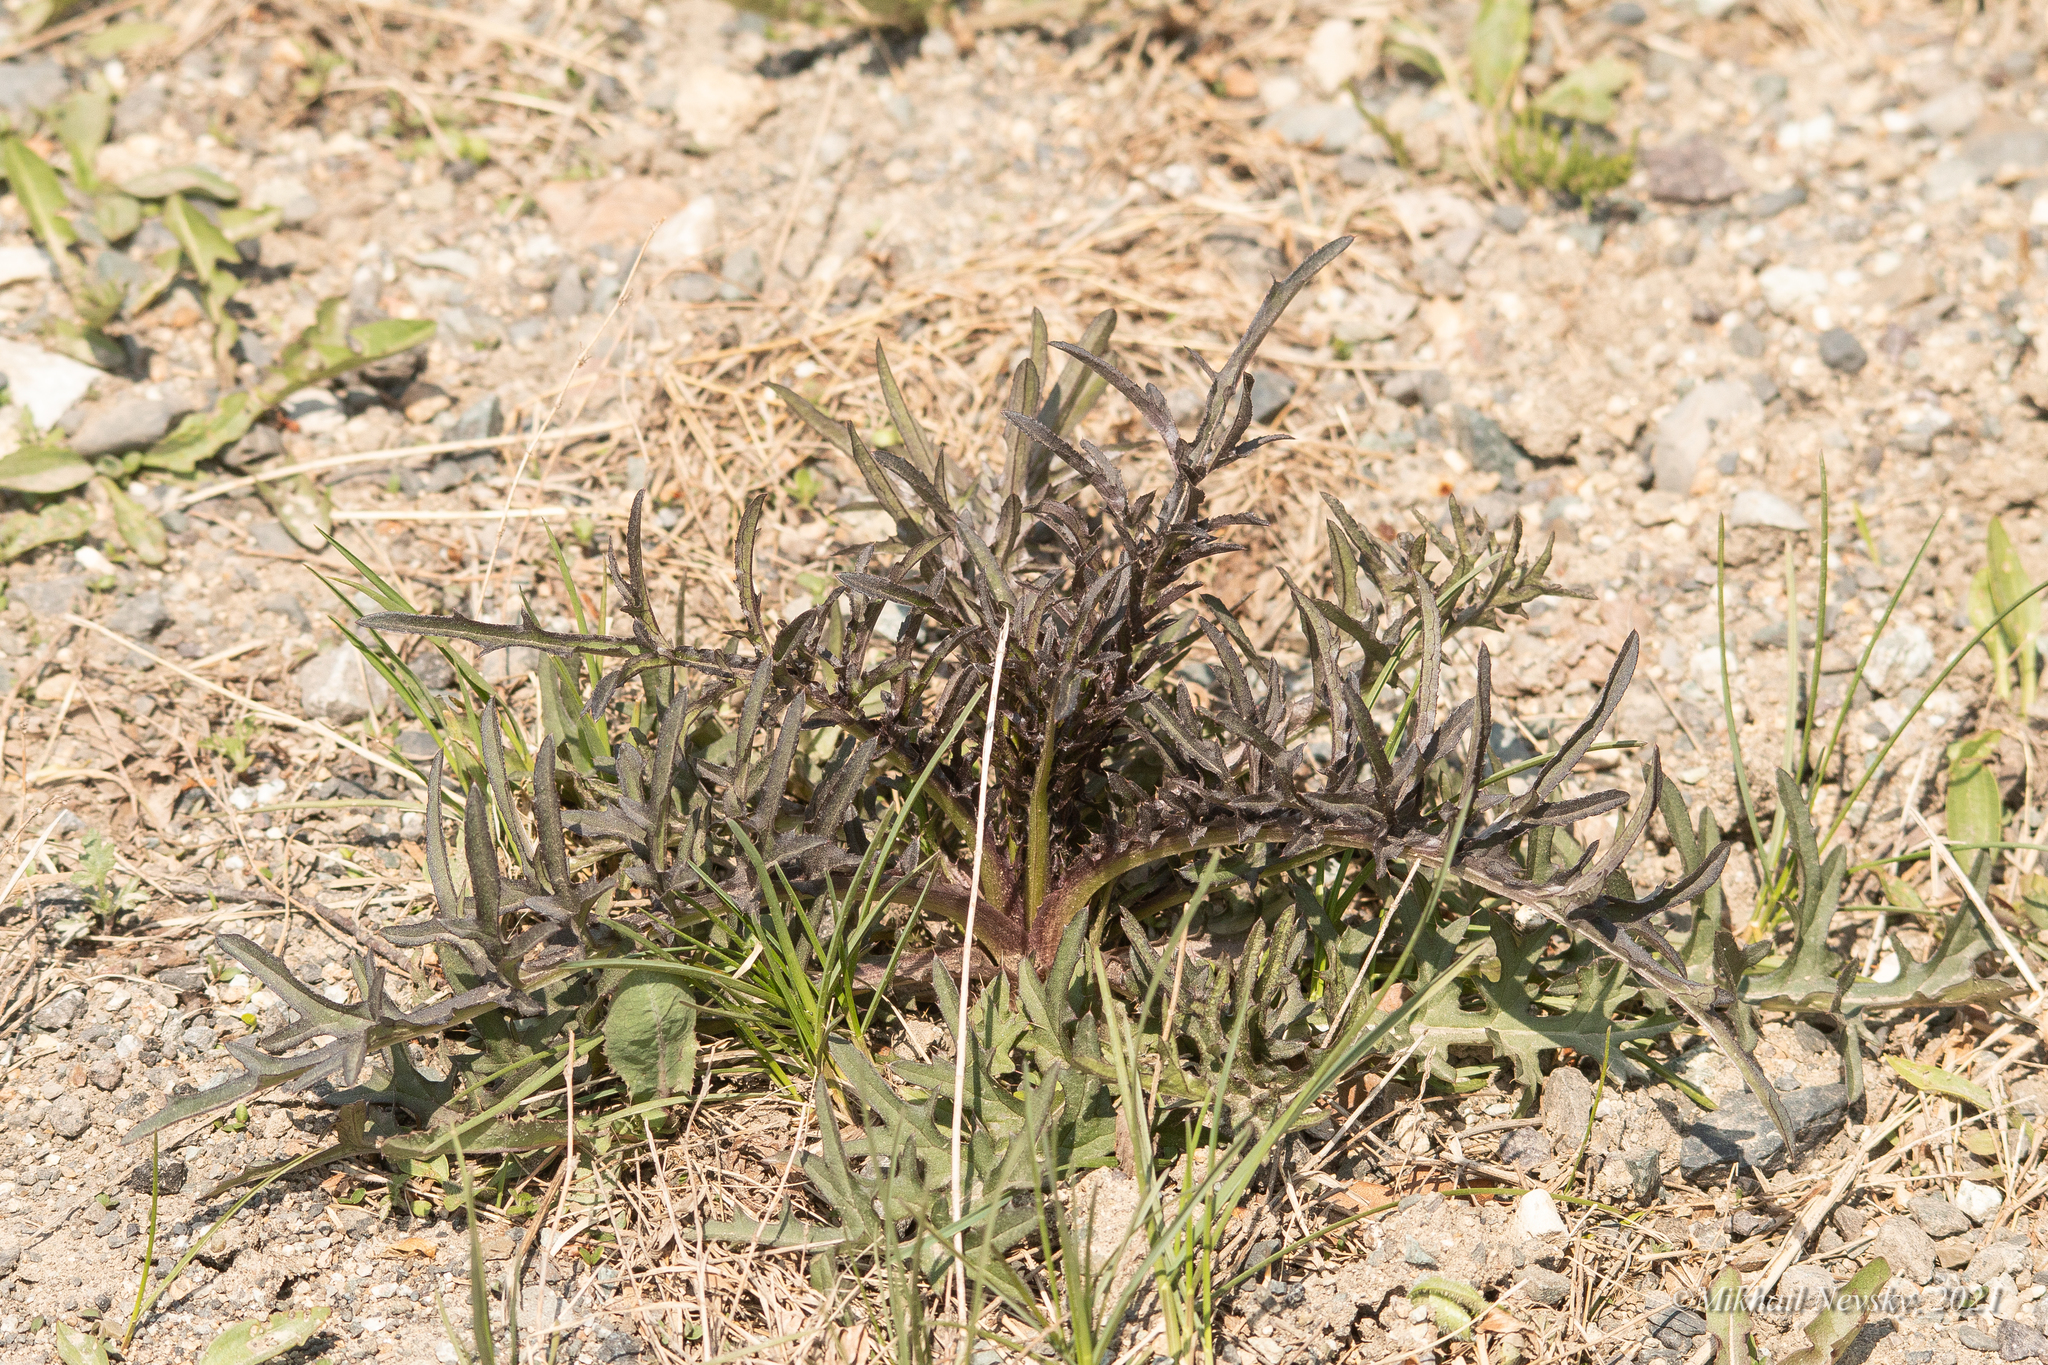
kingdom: Plantae
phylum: Tracheophyta
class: Magnoliopsida
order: Asterales
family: Asteraceae
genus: Cirsium
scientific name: Cirsium pendulum
